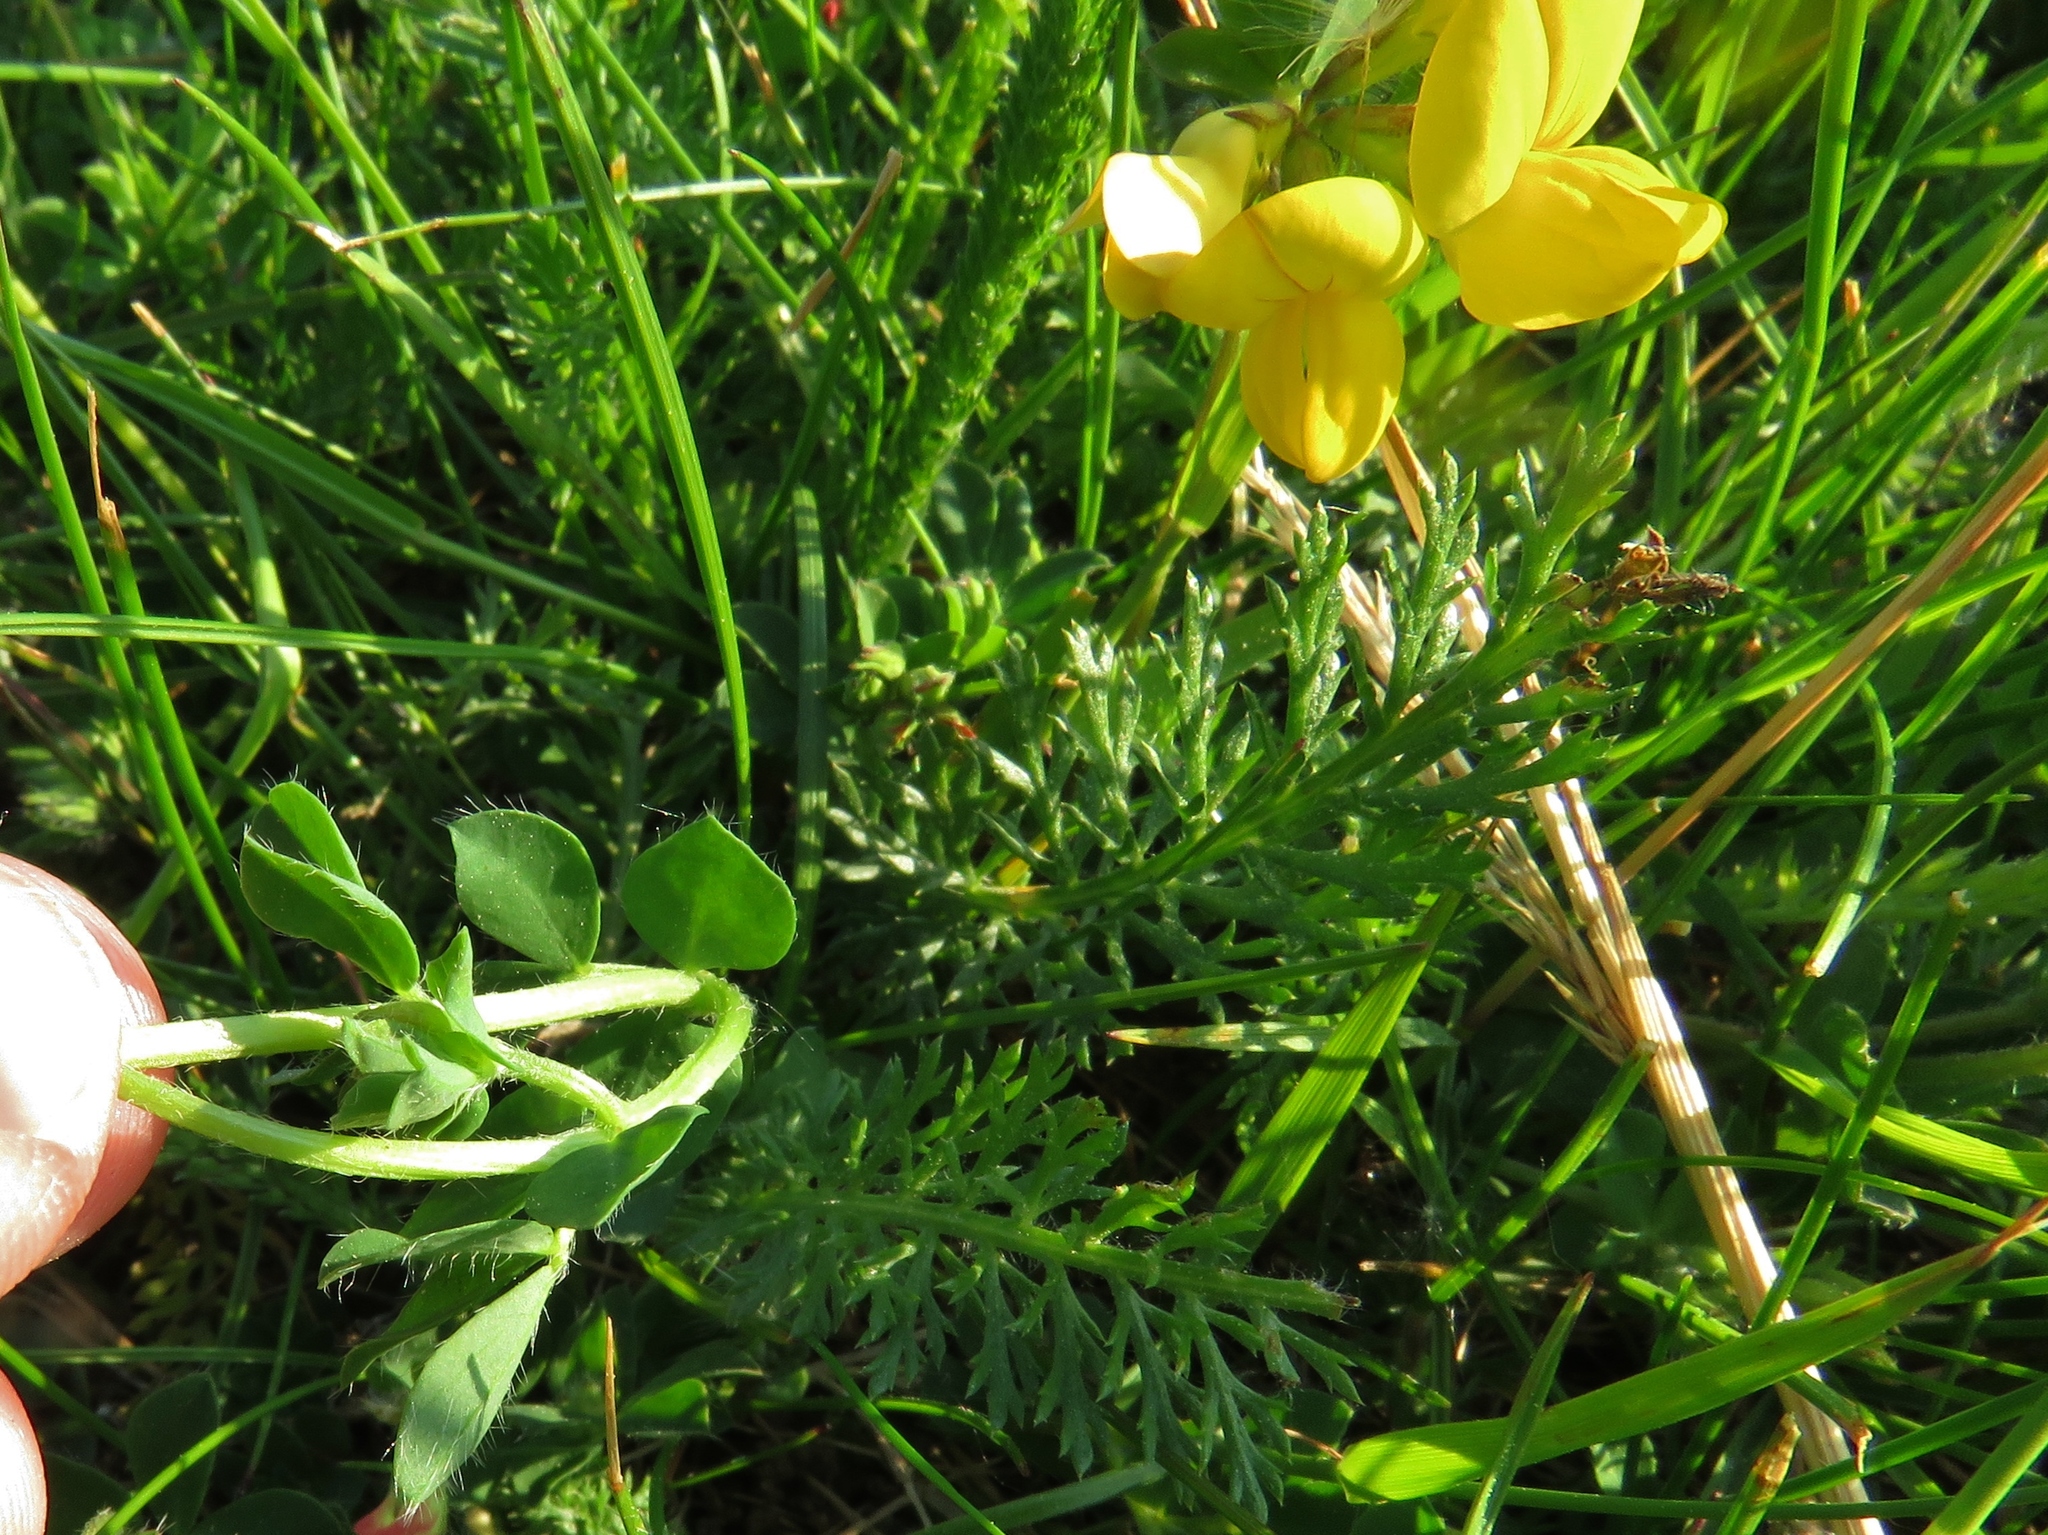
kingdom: Plantae
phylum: Tracheophyta
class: Magnoliopsida
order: Fabales
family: Fabaceae
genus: Lotus
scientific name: Lotus corniculatus
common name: Common bird's-foot-trefoil
